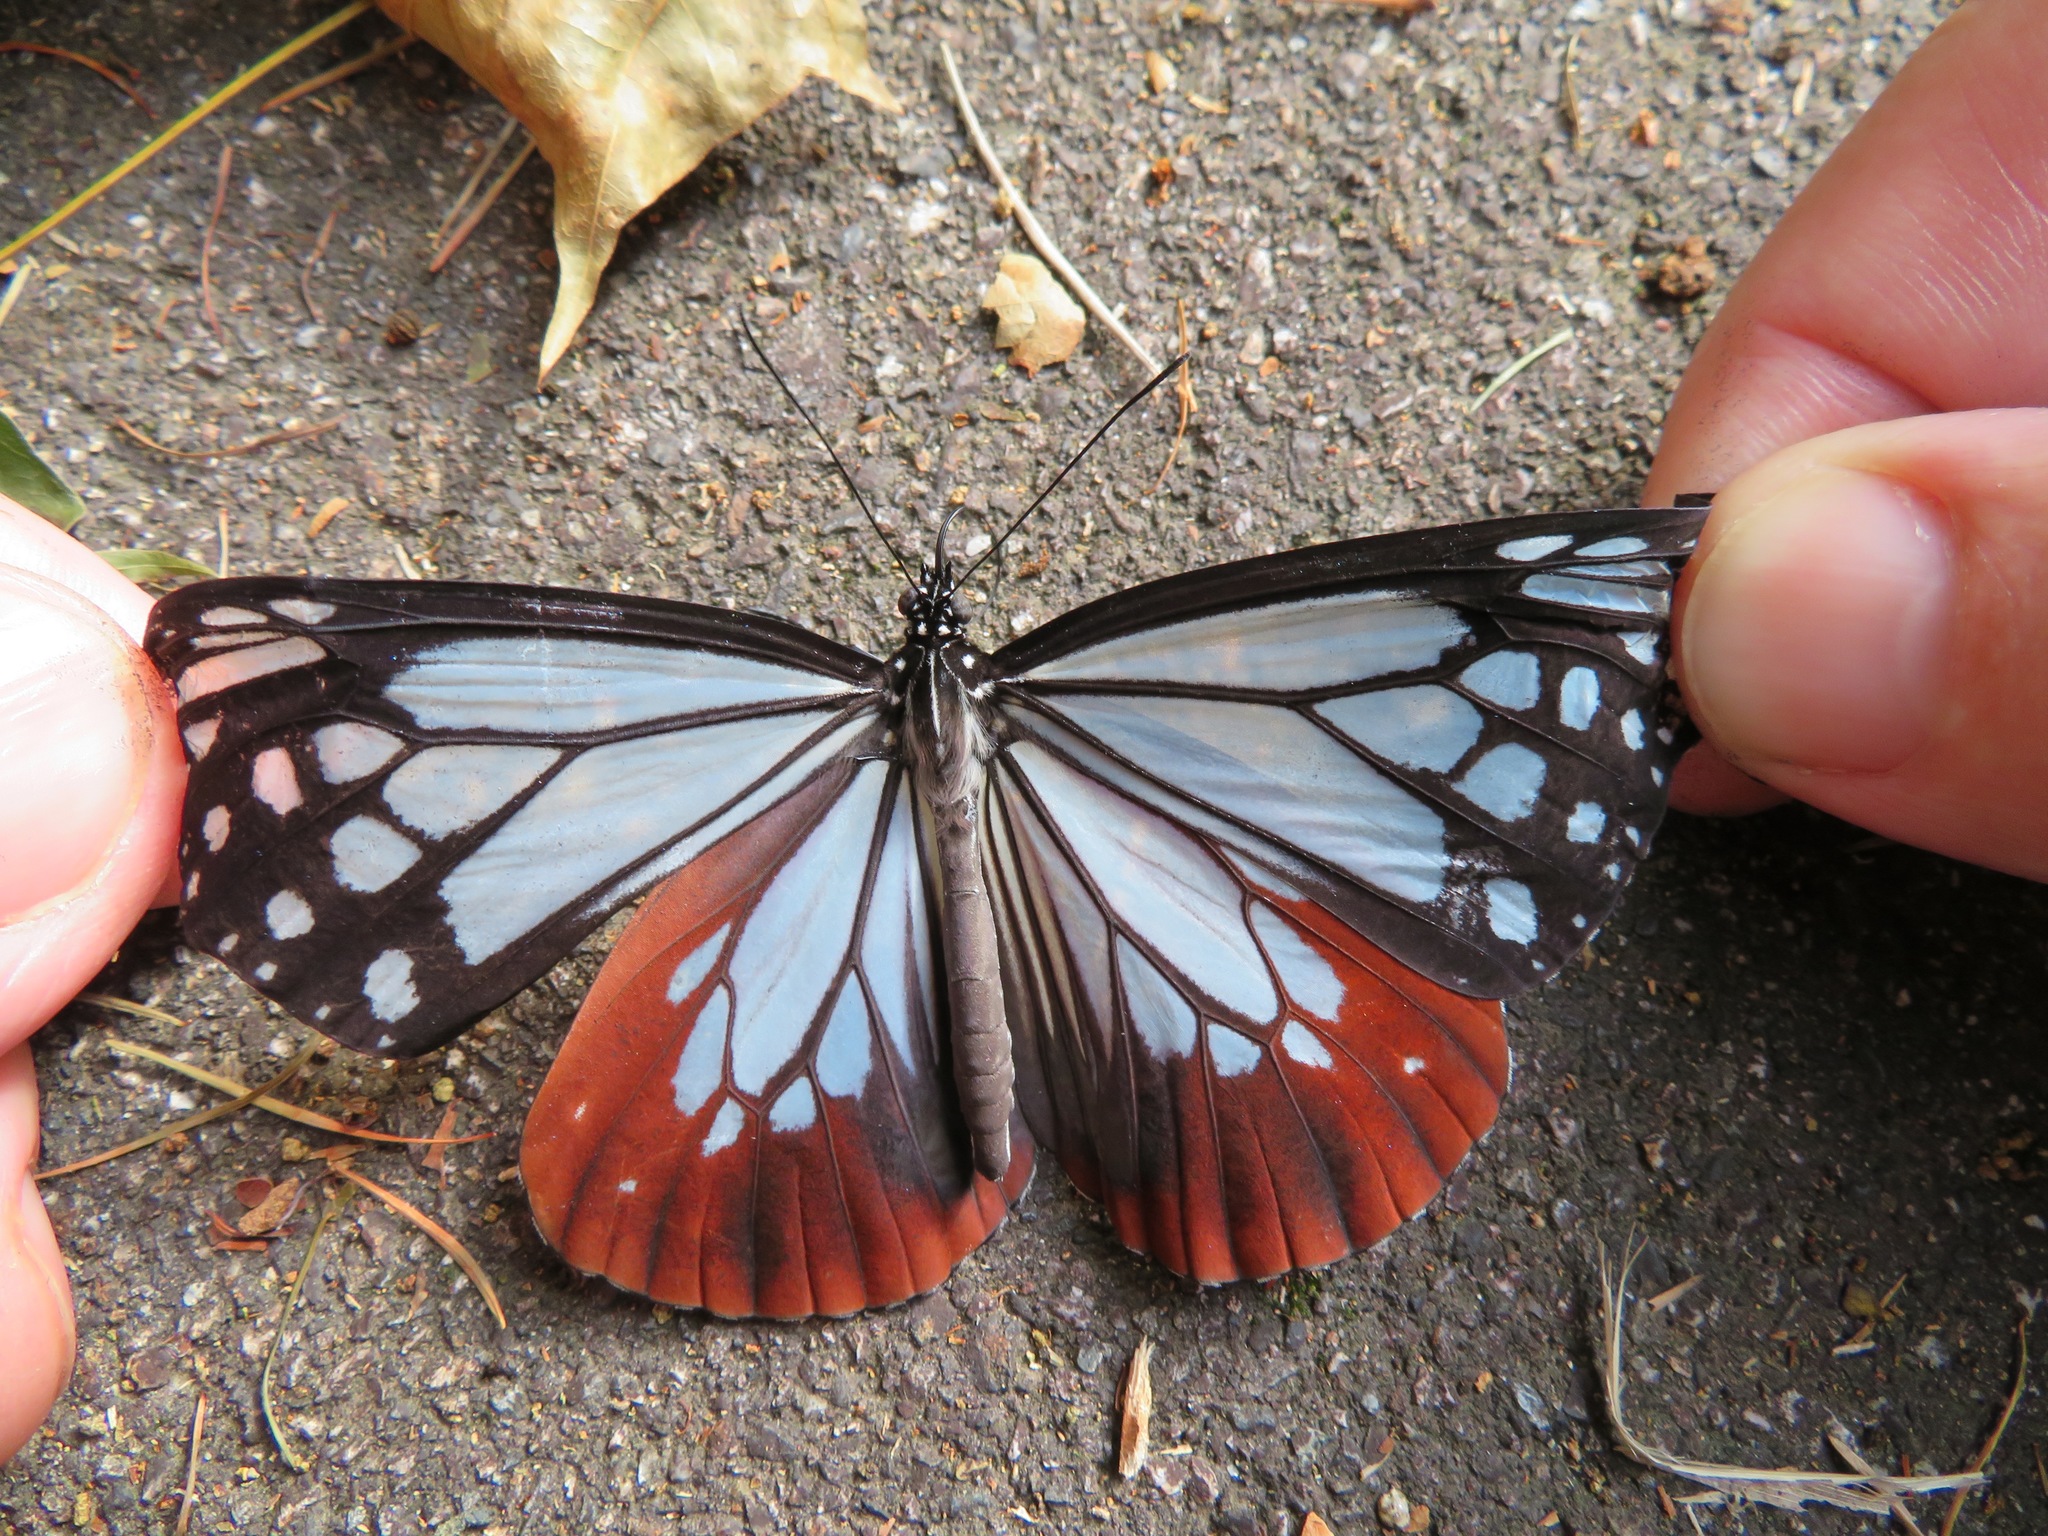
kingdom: Animalia
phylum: Arthropoda
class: Insecta
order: Lepidoptera
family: Nymphalidae
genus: Parantica
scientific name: Parantica sita
